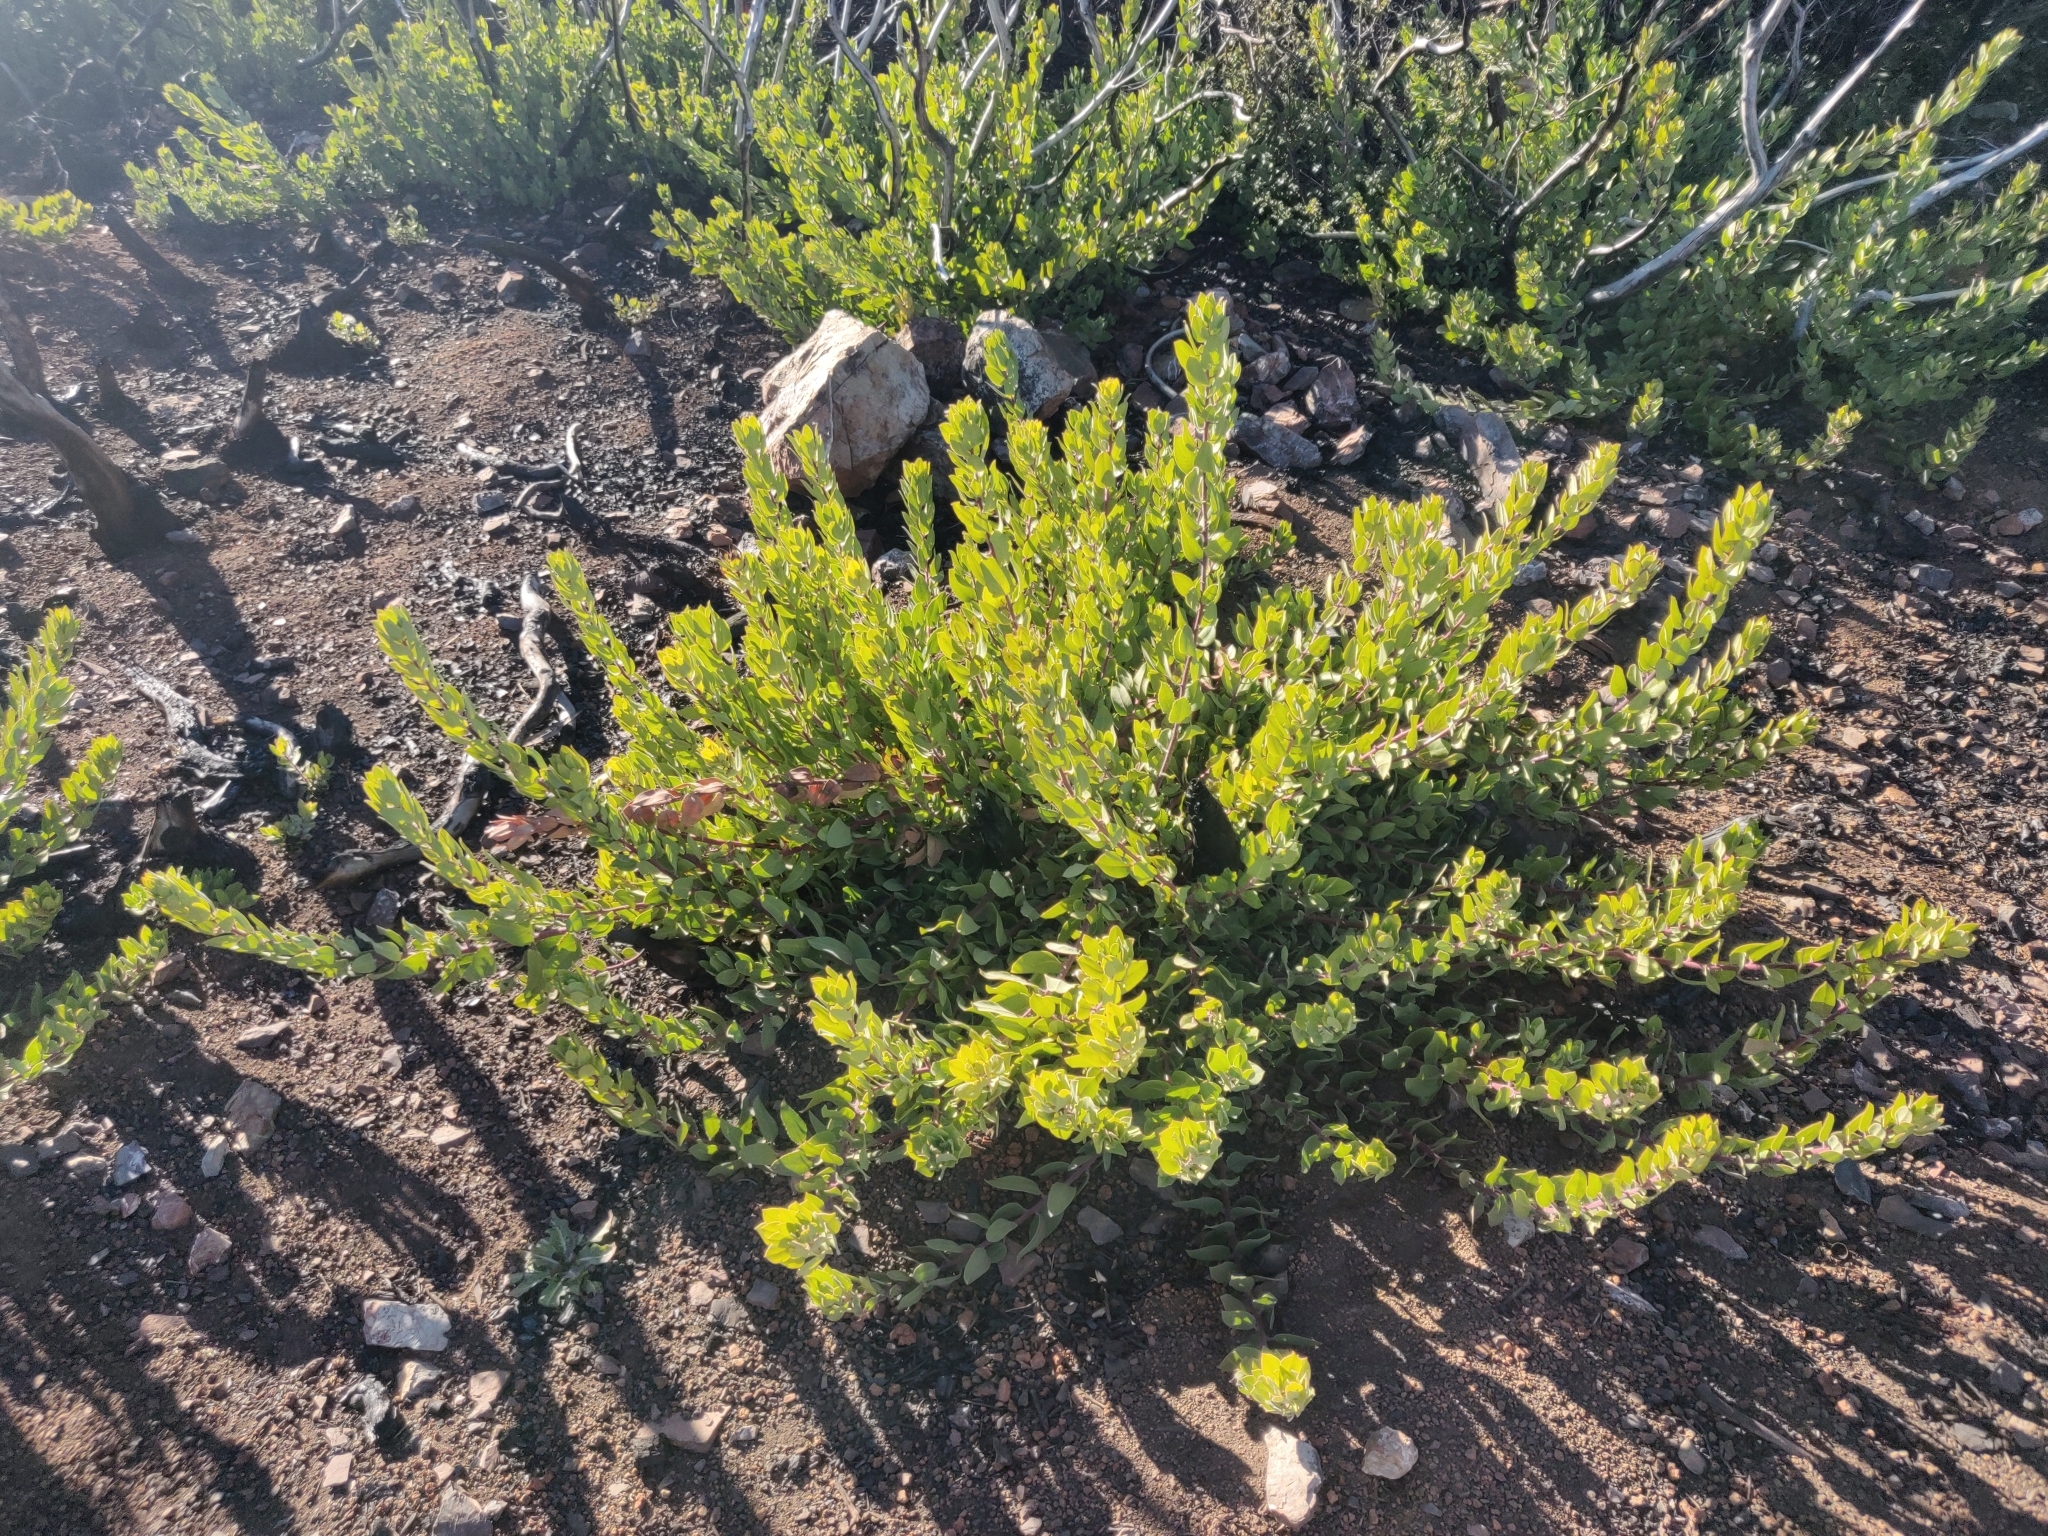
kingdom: Plantae
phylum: Tracheophyta
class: Magnoliopsida
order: Ericales
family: Ericaceae
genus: Arctostaphylos
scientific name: Arctostaphylos crustacea
